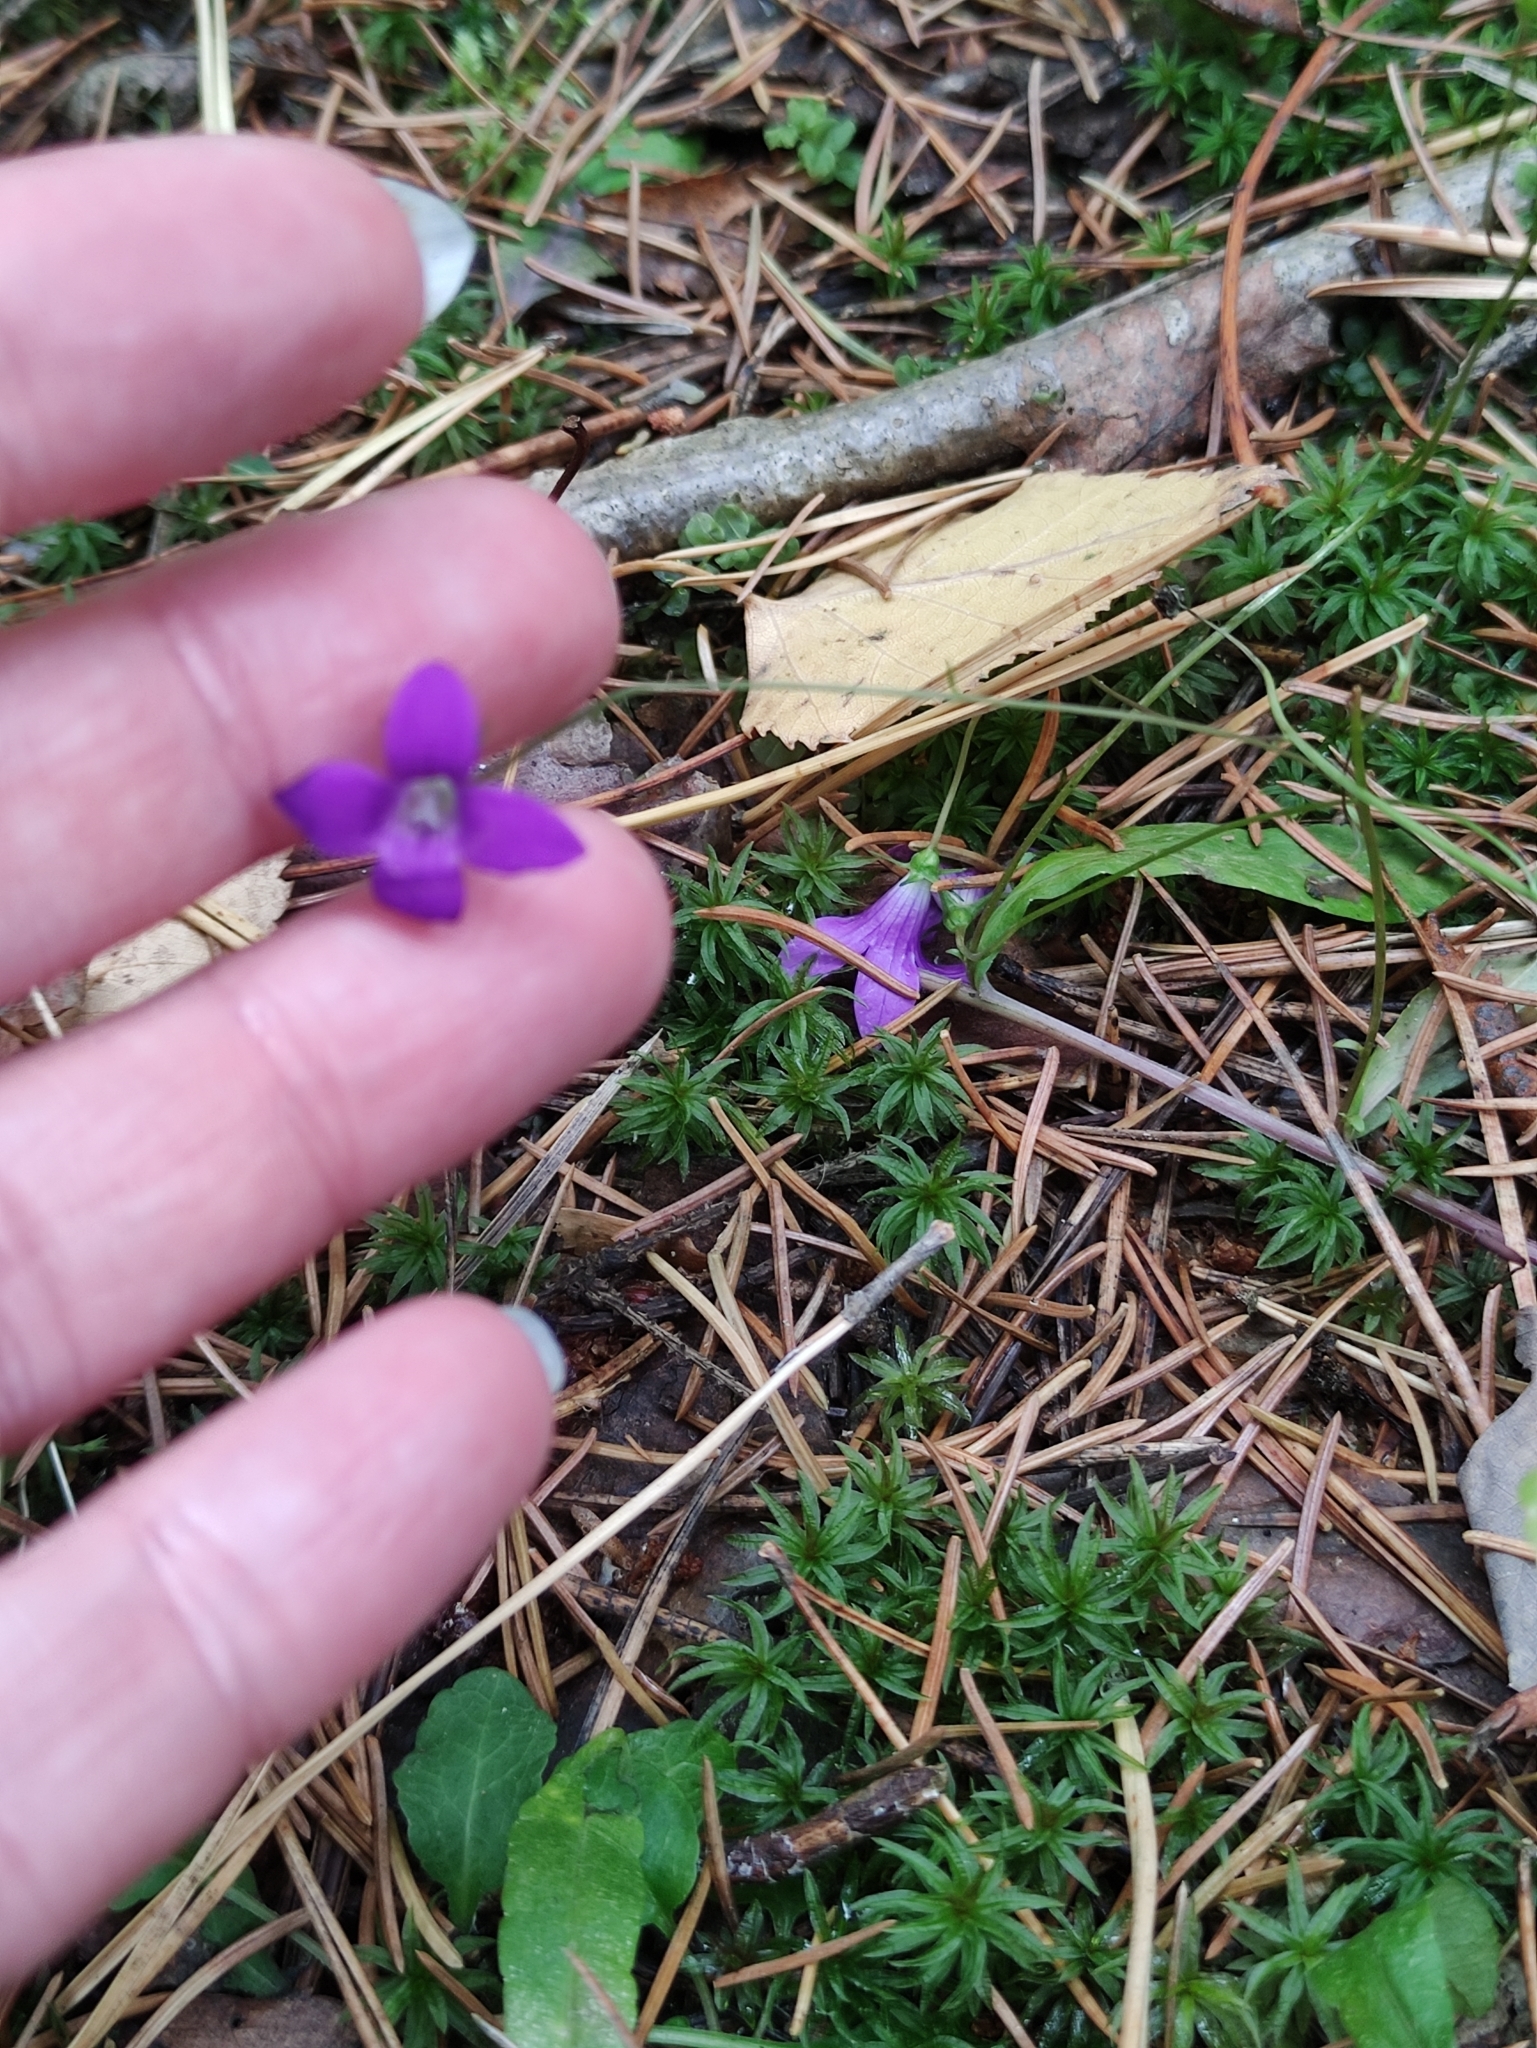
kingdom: Plantae
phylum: Tracheophyta
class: Magnoliopsida
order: Asterales
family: Campanulaceae
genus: Campanula
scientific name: Campanula patula
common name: Spreading bellflower
